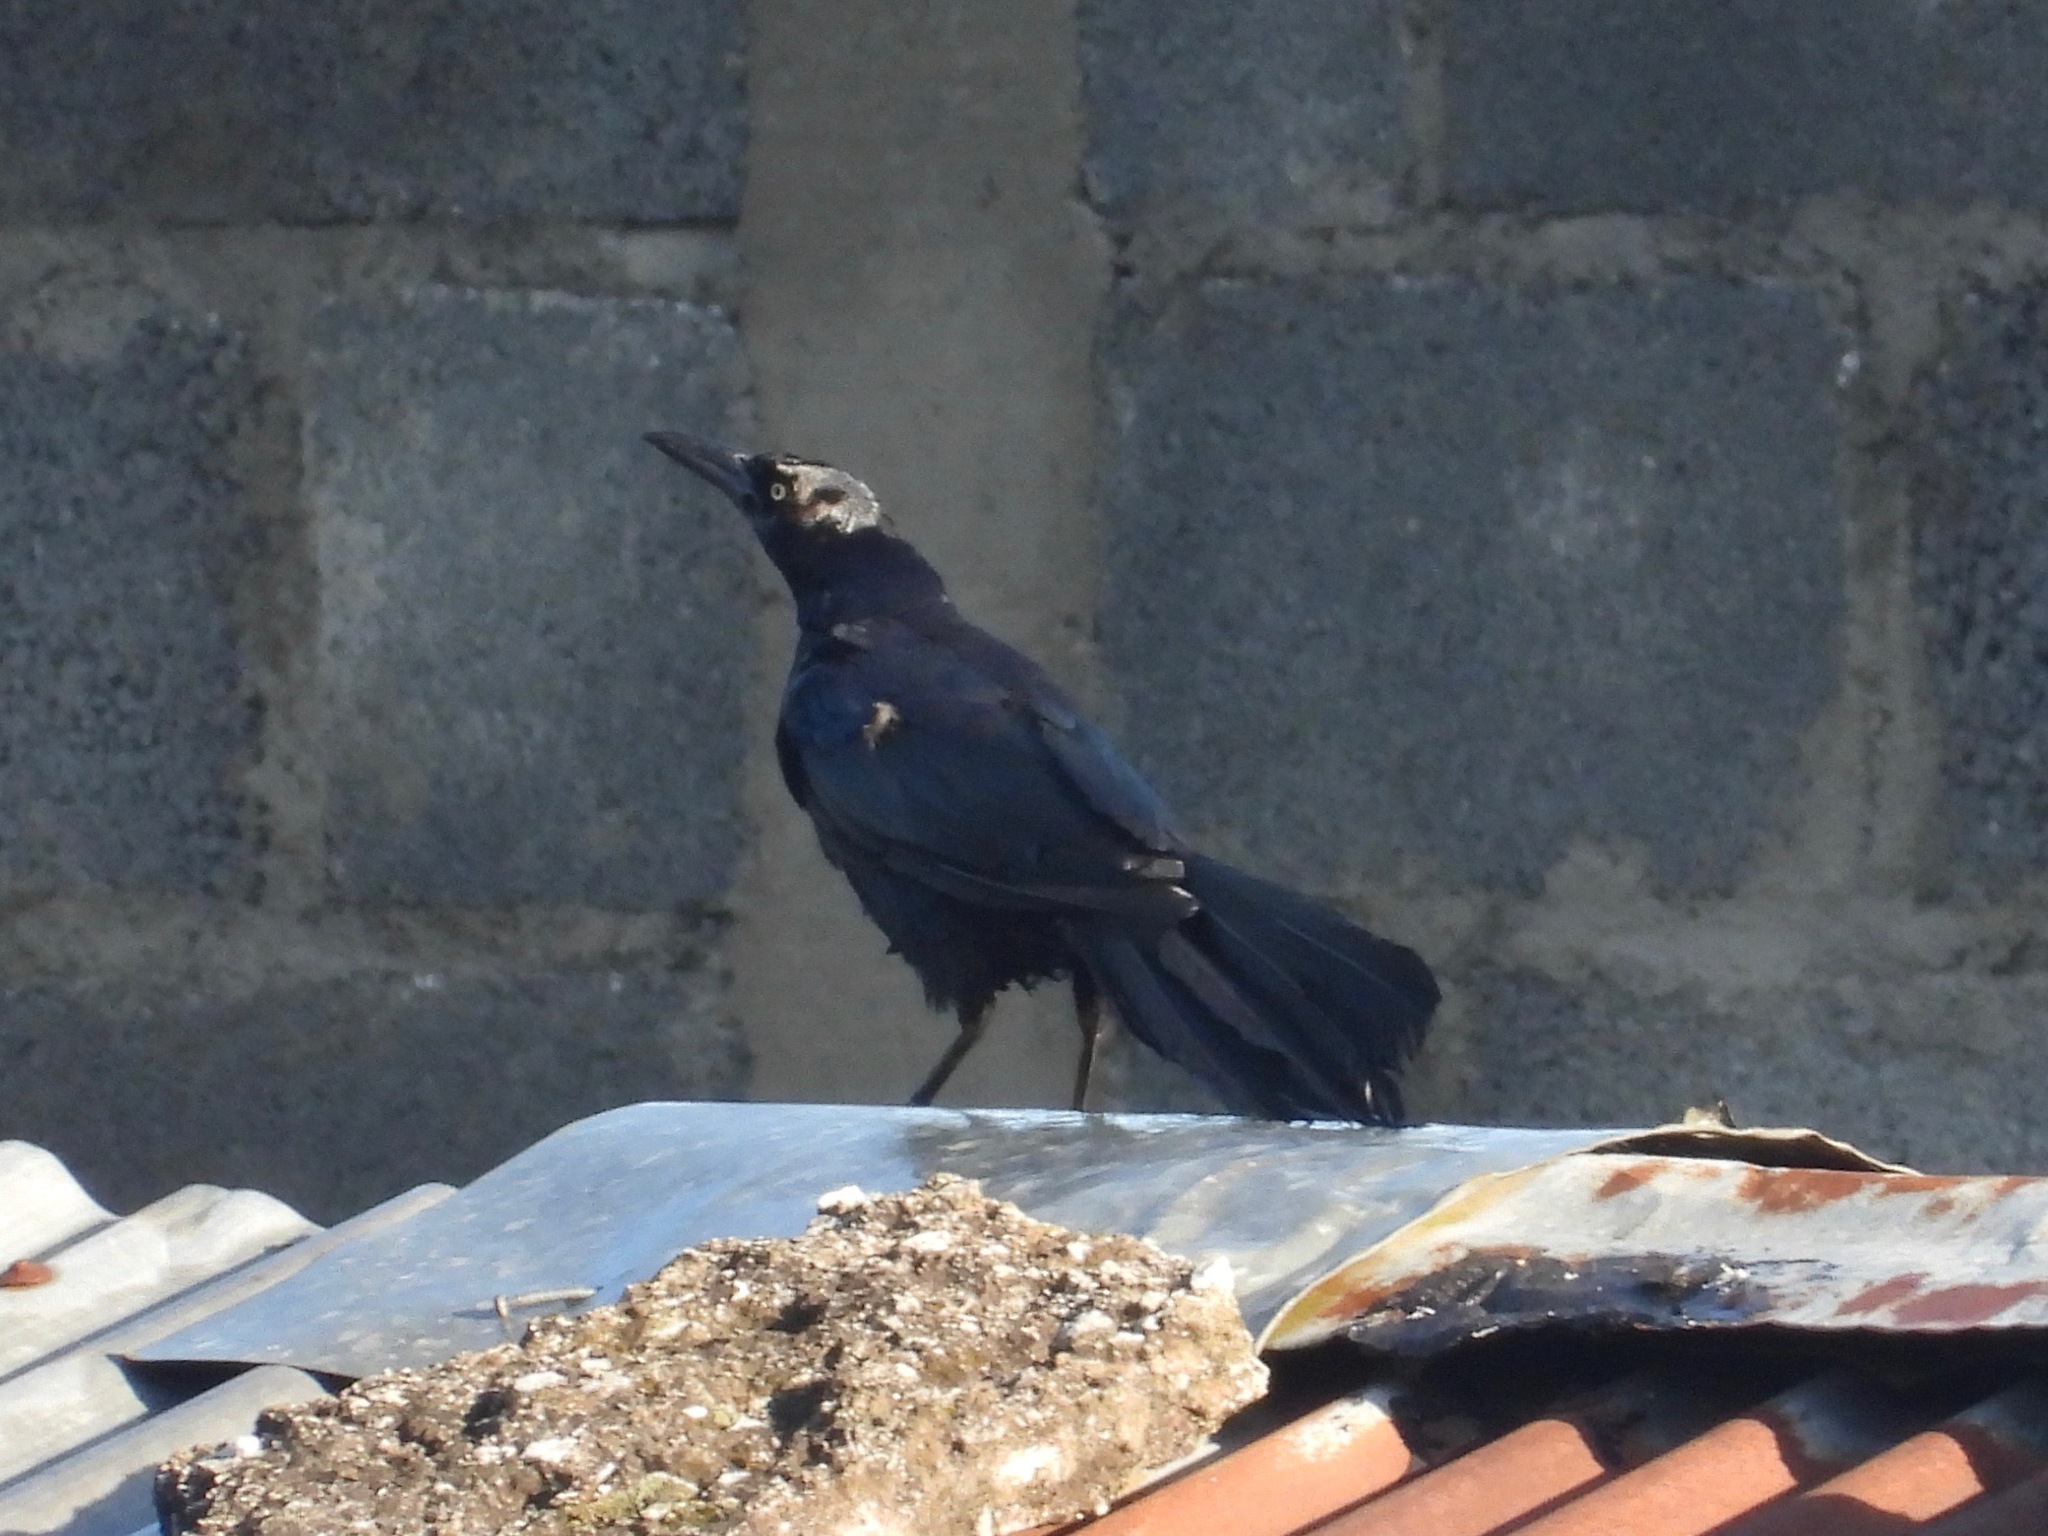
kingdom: Animalia
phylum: Chordata
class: Aves
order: Passeriformes
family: Icteridae
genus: Quiscalus
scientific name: Quiscalus mexicanus
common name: Great-tailed grackle
